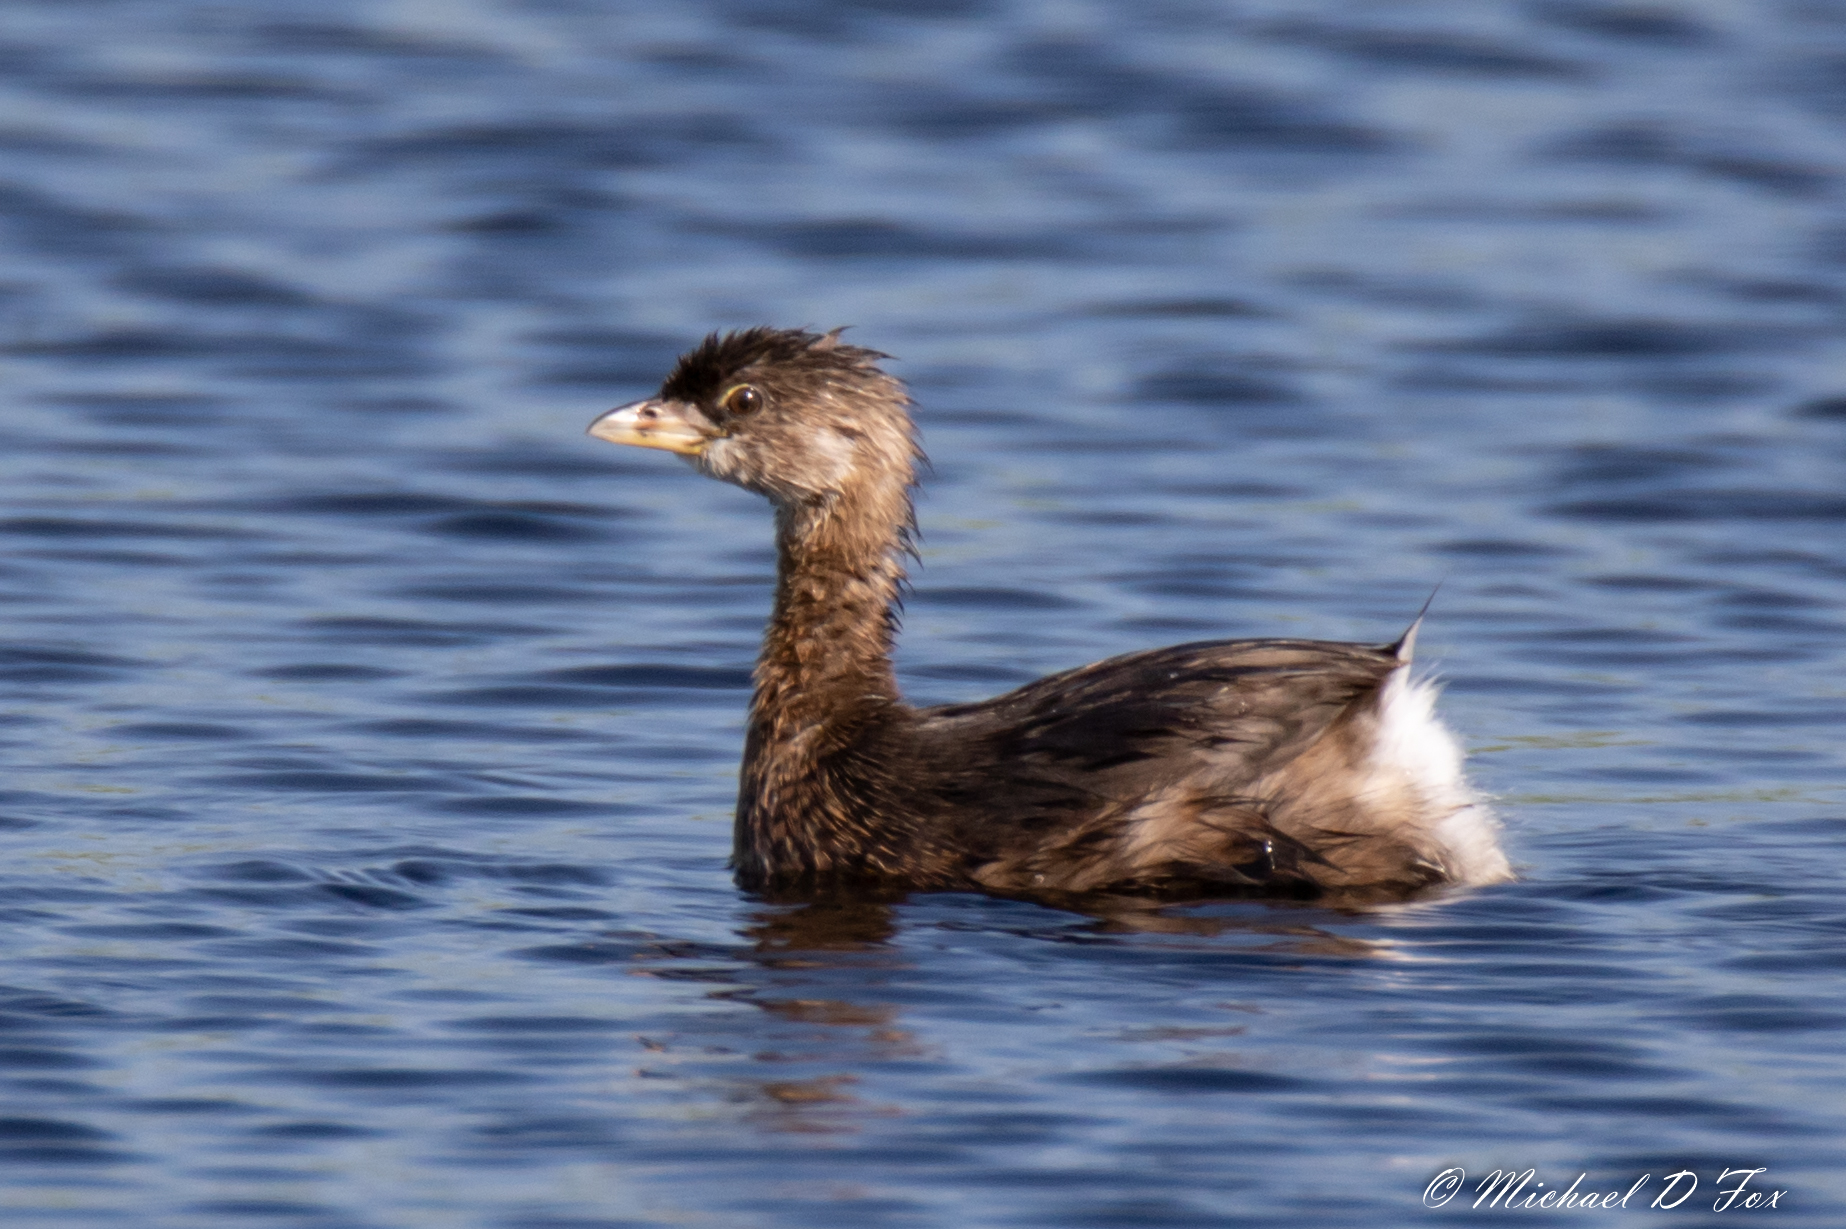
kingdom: Animalia
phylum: Chordata
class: Aves
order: Podicipediformes
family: Podicipedidae
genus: Podilymbus
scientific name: Podilymbus podiceps
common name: Pied-billed grebe
